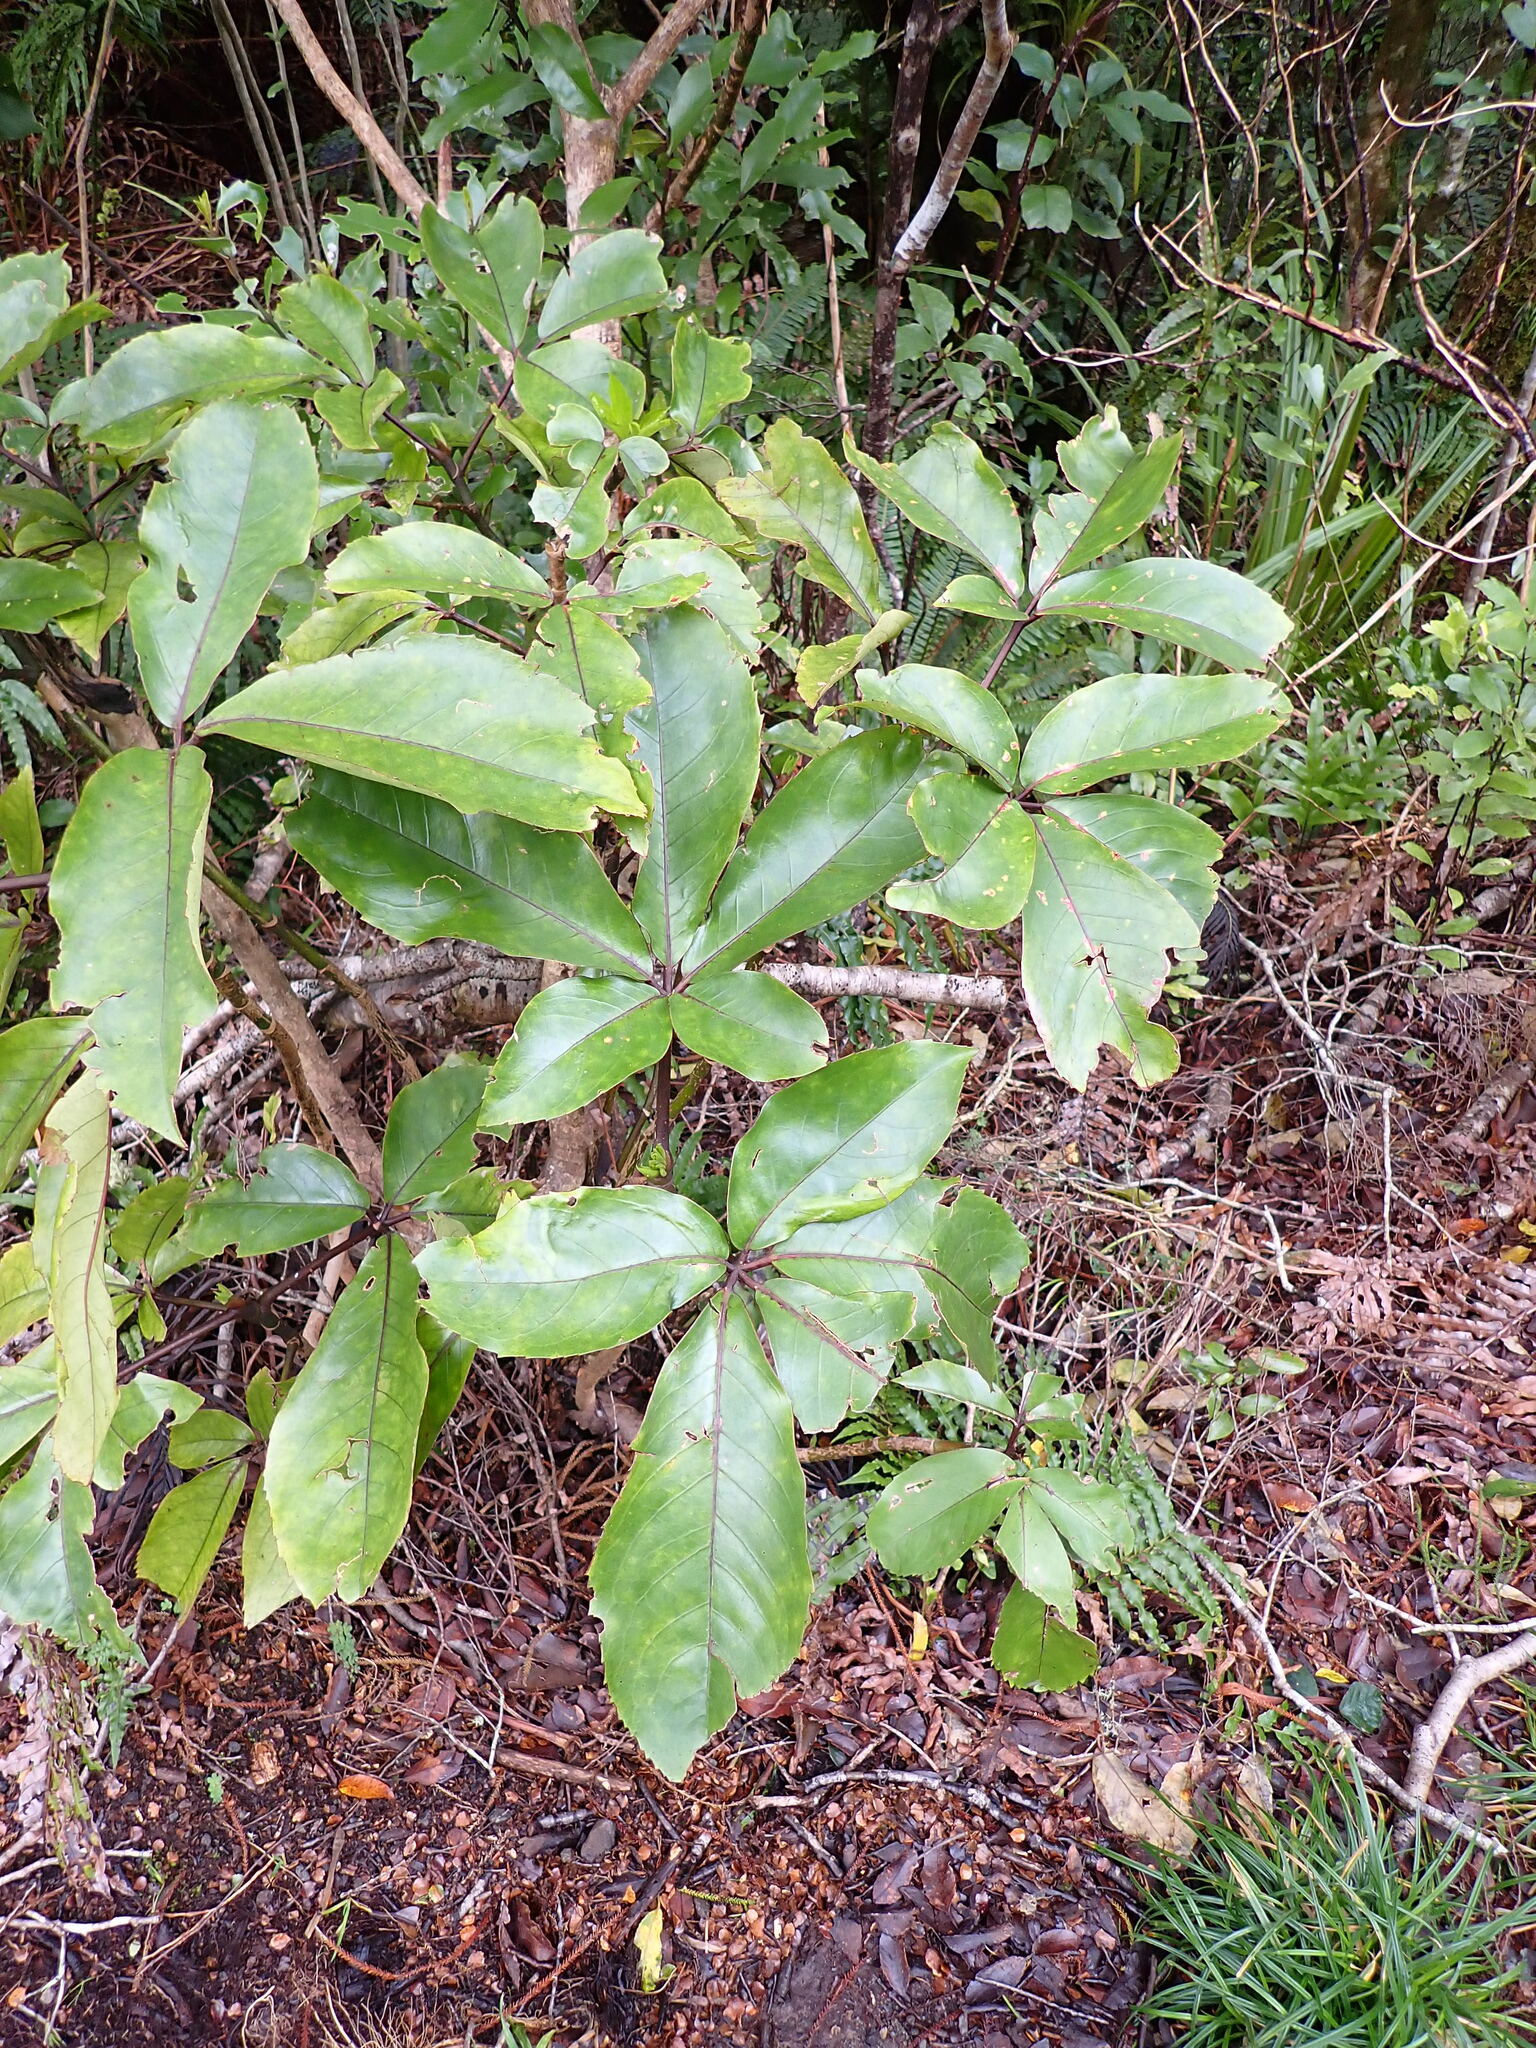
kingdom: Plantae
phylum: Tracheophyta
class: Magnoliopsida
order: Apiales
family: Araliaceae
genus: Neopanax
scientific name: Neopanax laetus
